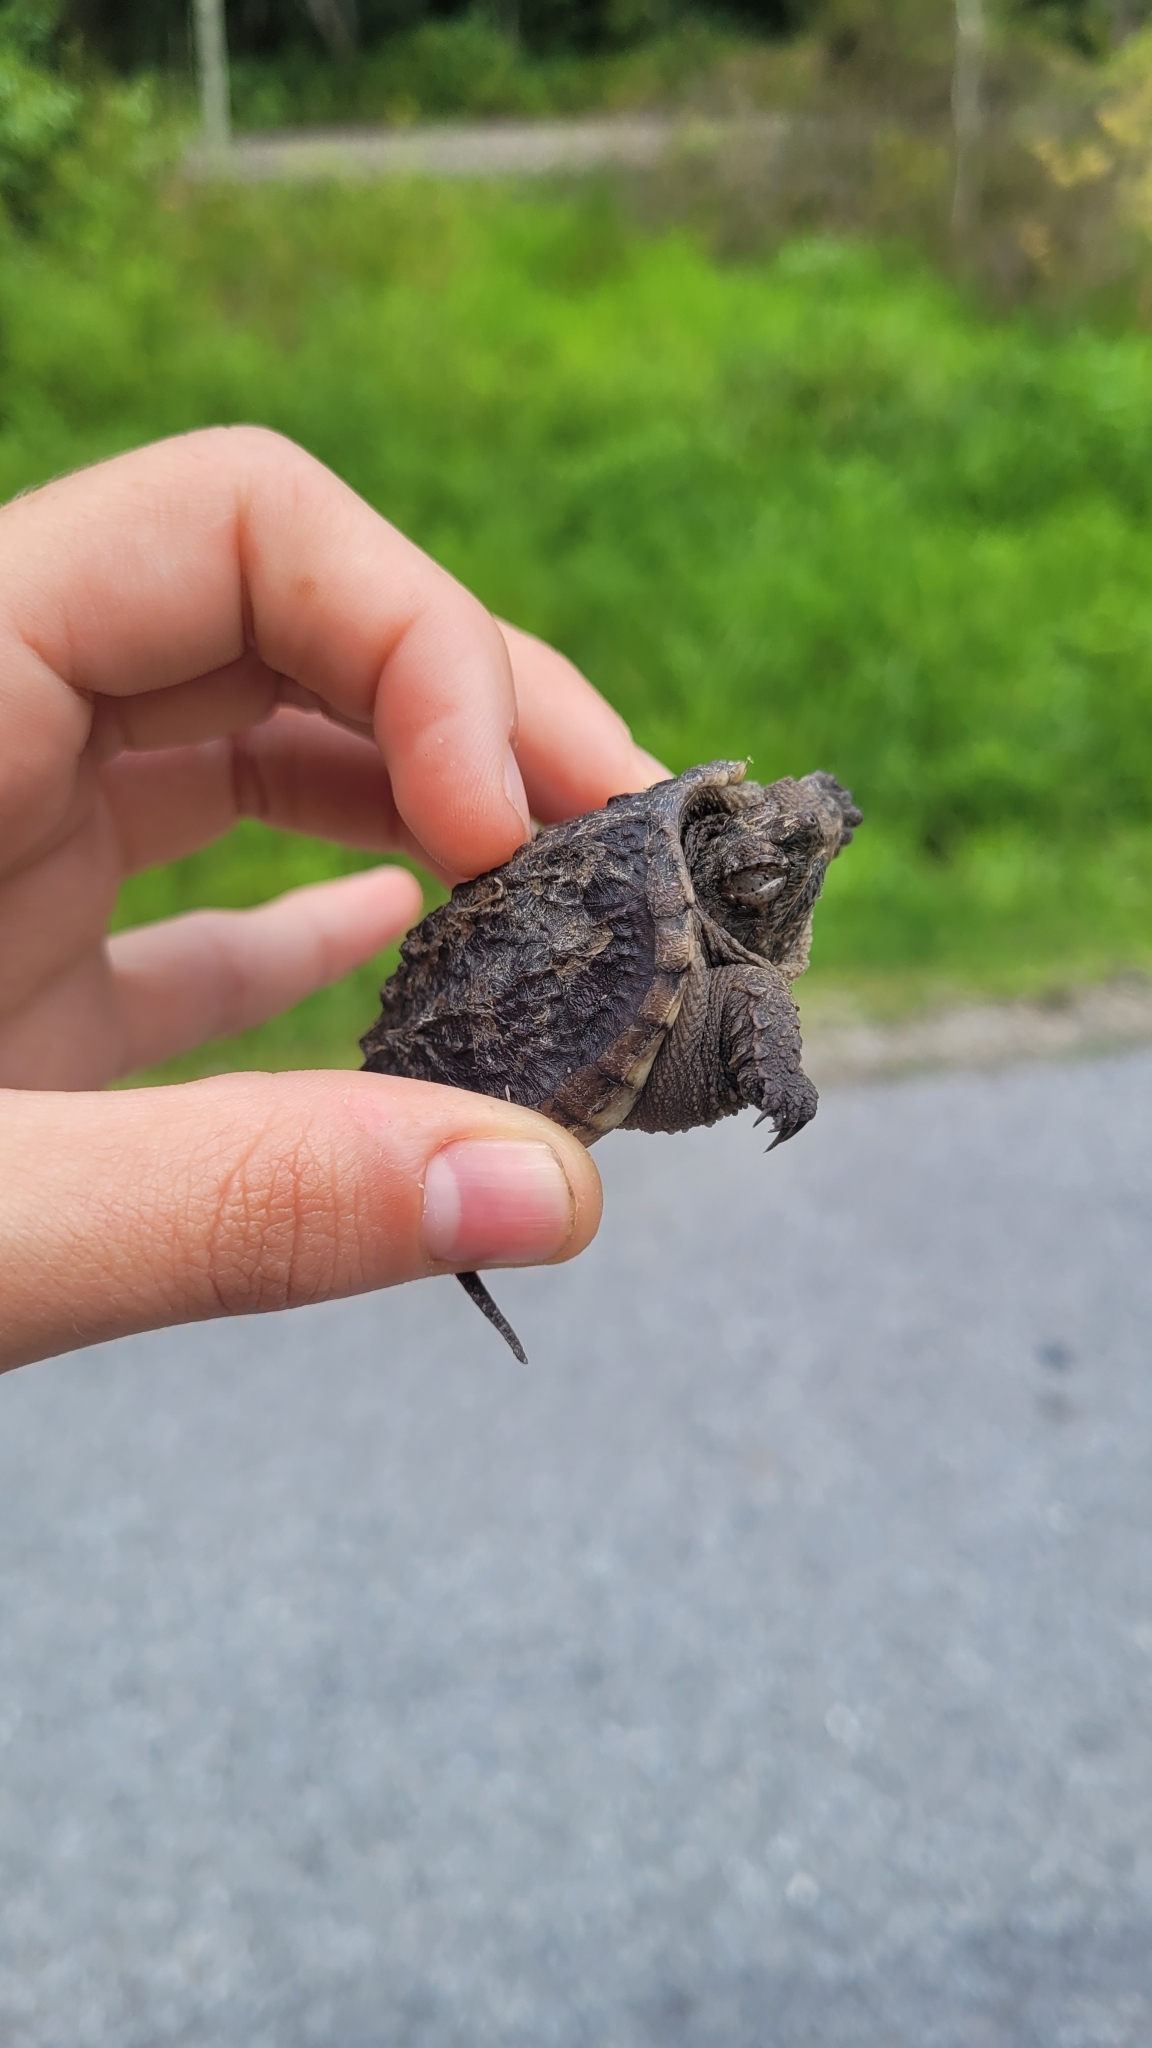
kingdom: Animalia
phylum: Chordata
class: Testudines
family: Chelydridae
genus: Chelydra
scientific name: Chelydra serpentina
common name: Common snapping turtle
